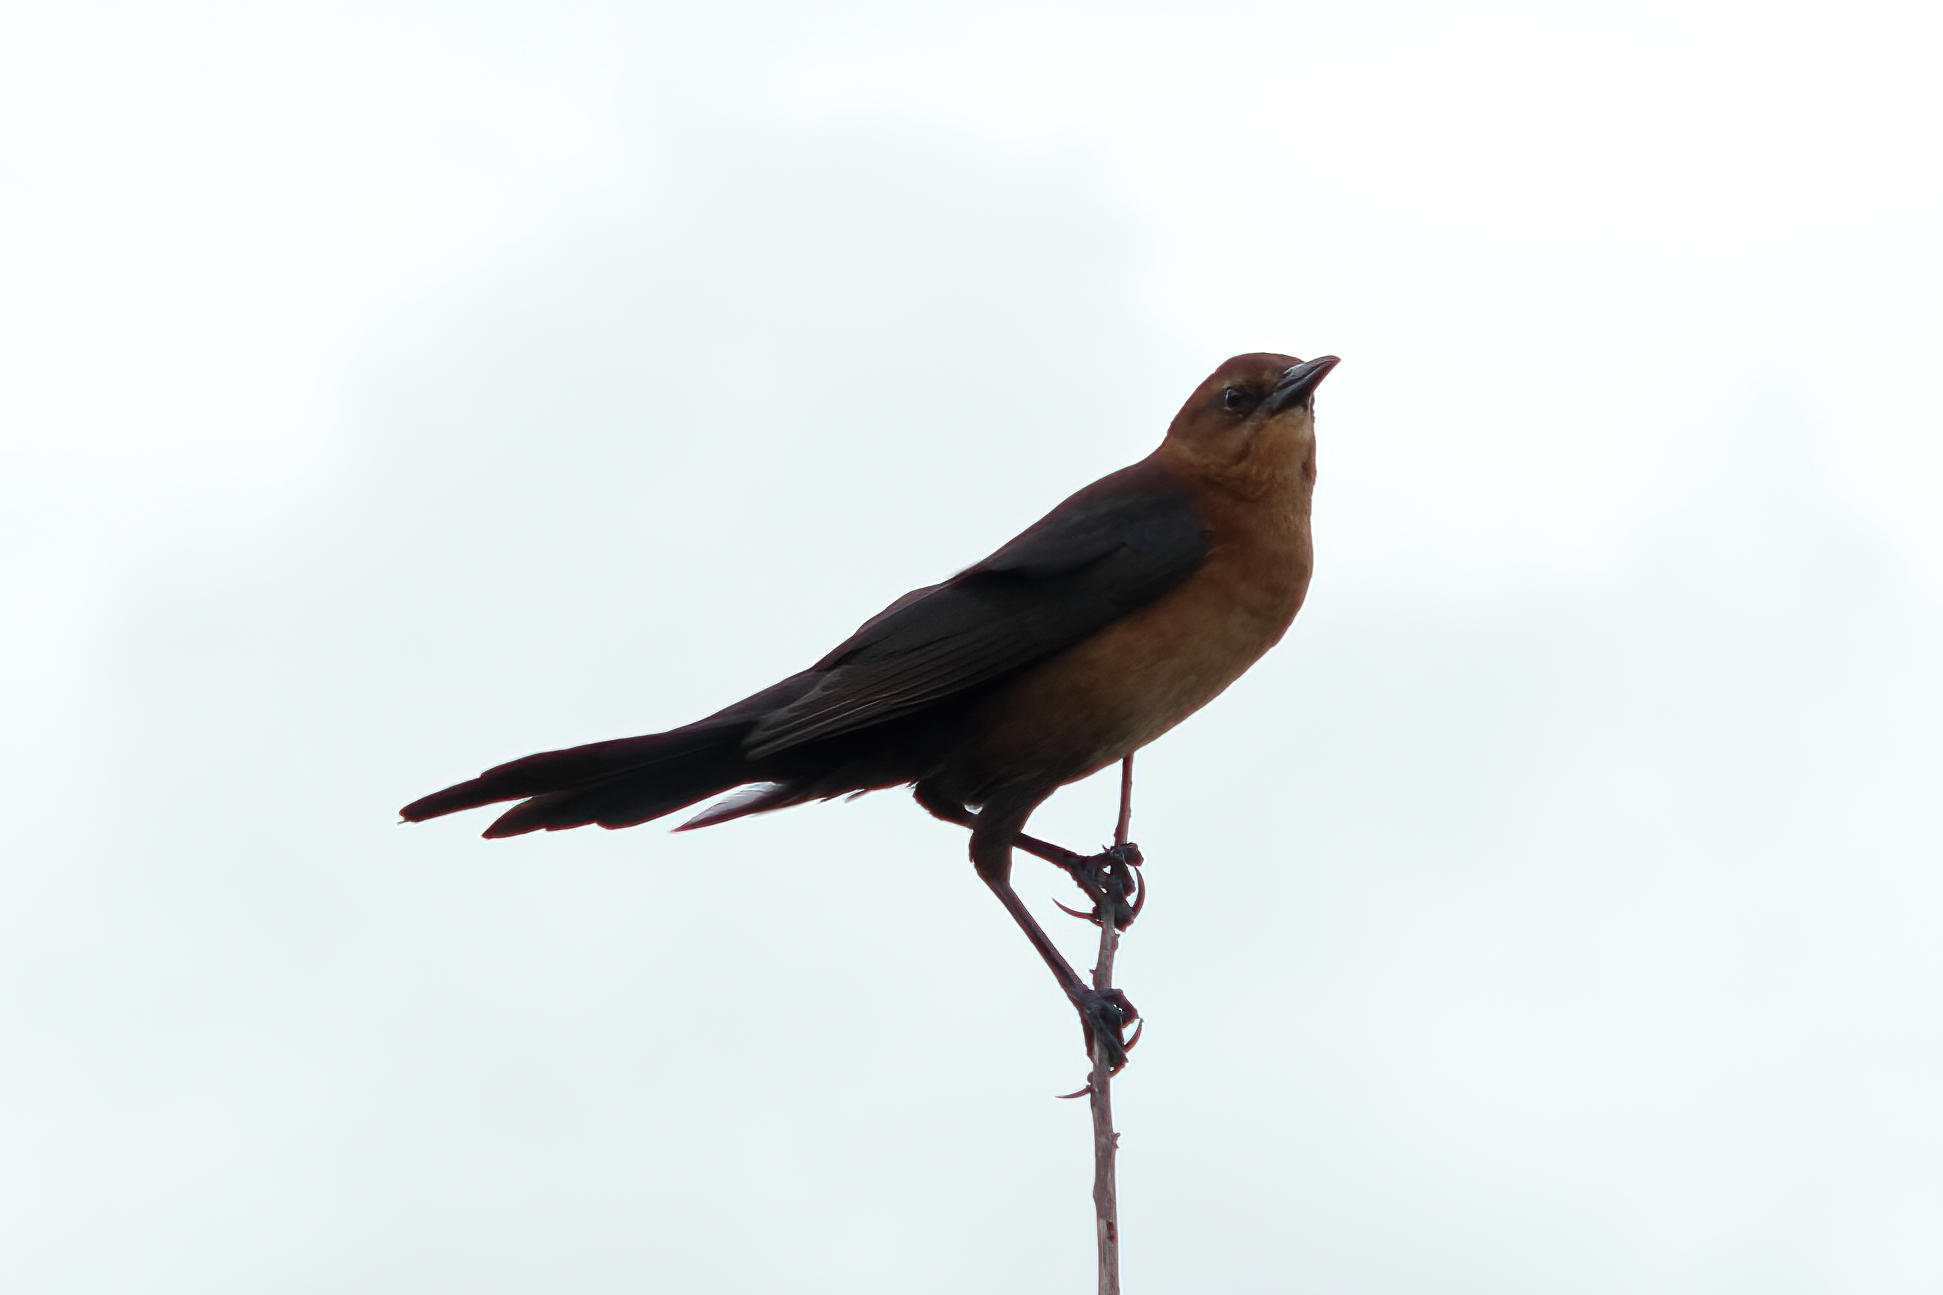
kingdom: Animalia
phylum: Chordata
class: Aves
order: Passeriformes
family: Icteridae
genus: Quiscalus
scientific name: Quiscalus major
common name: Boat-tailed grackle
